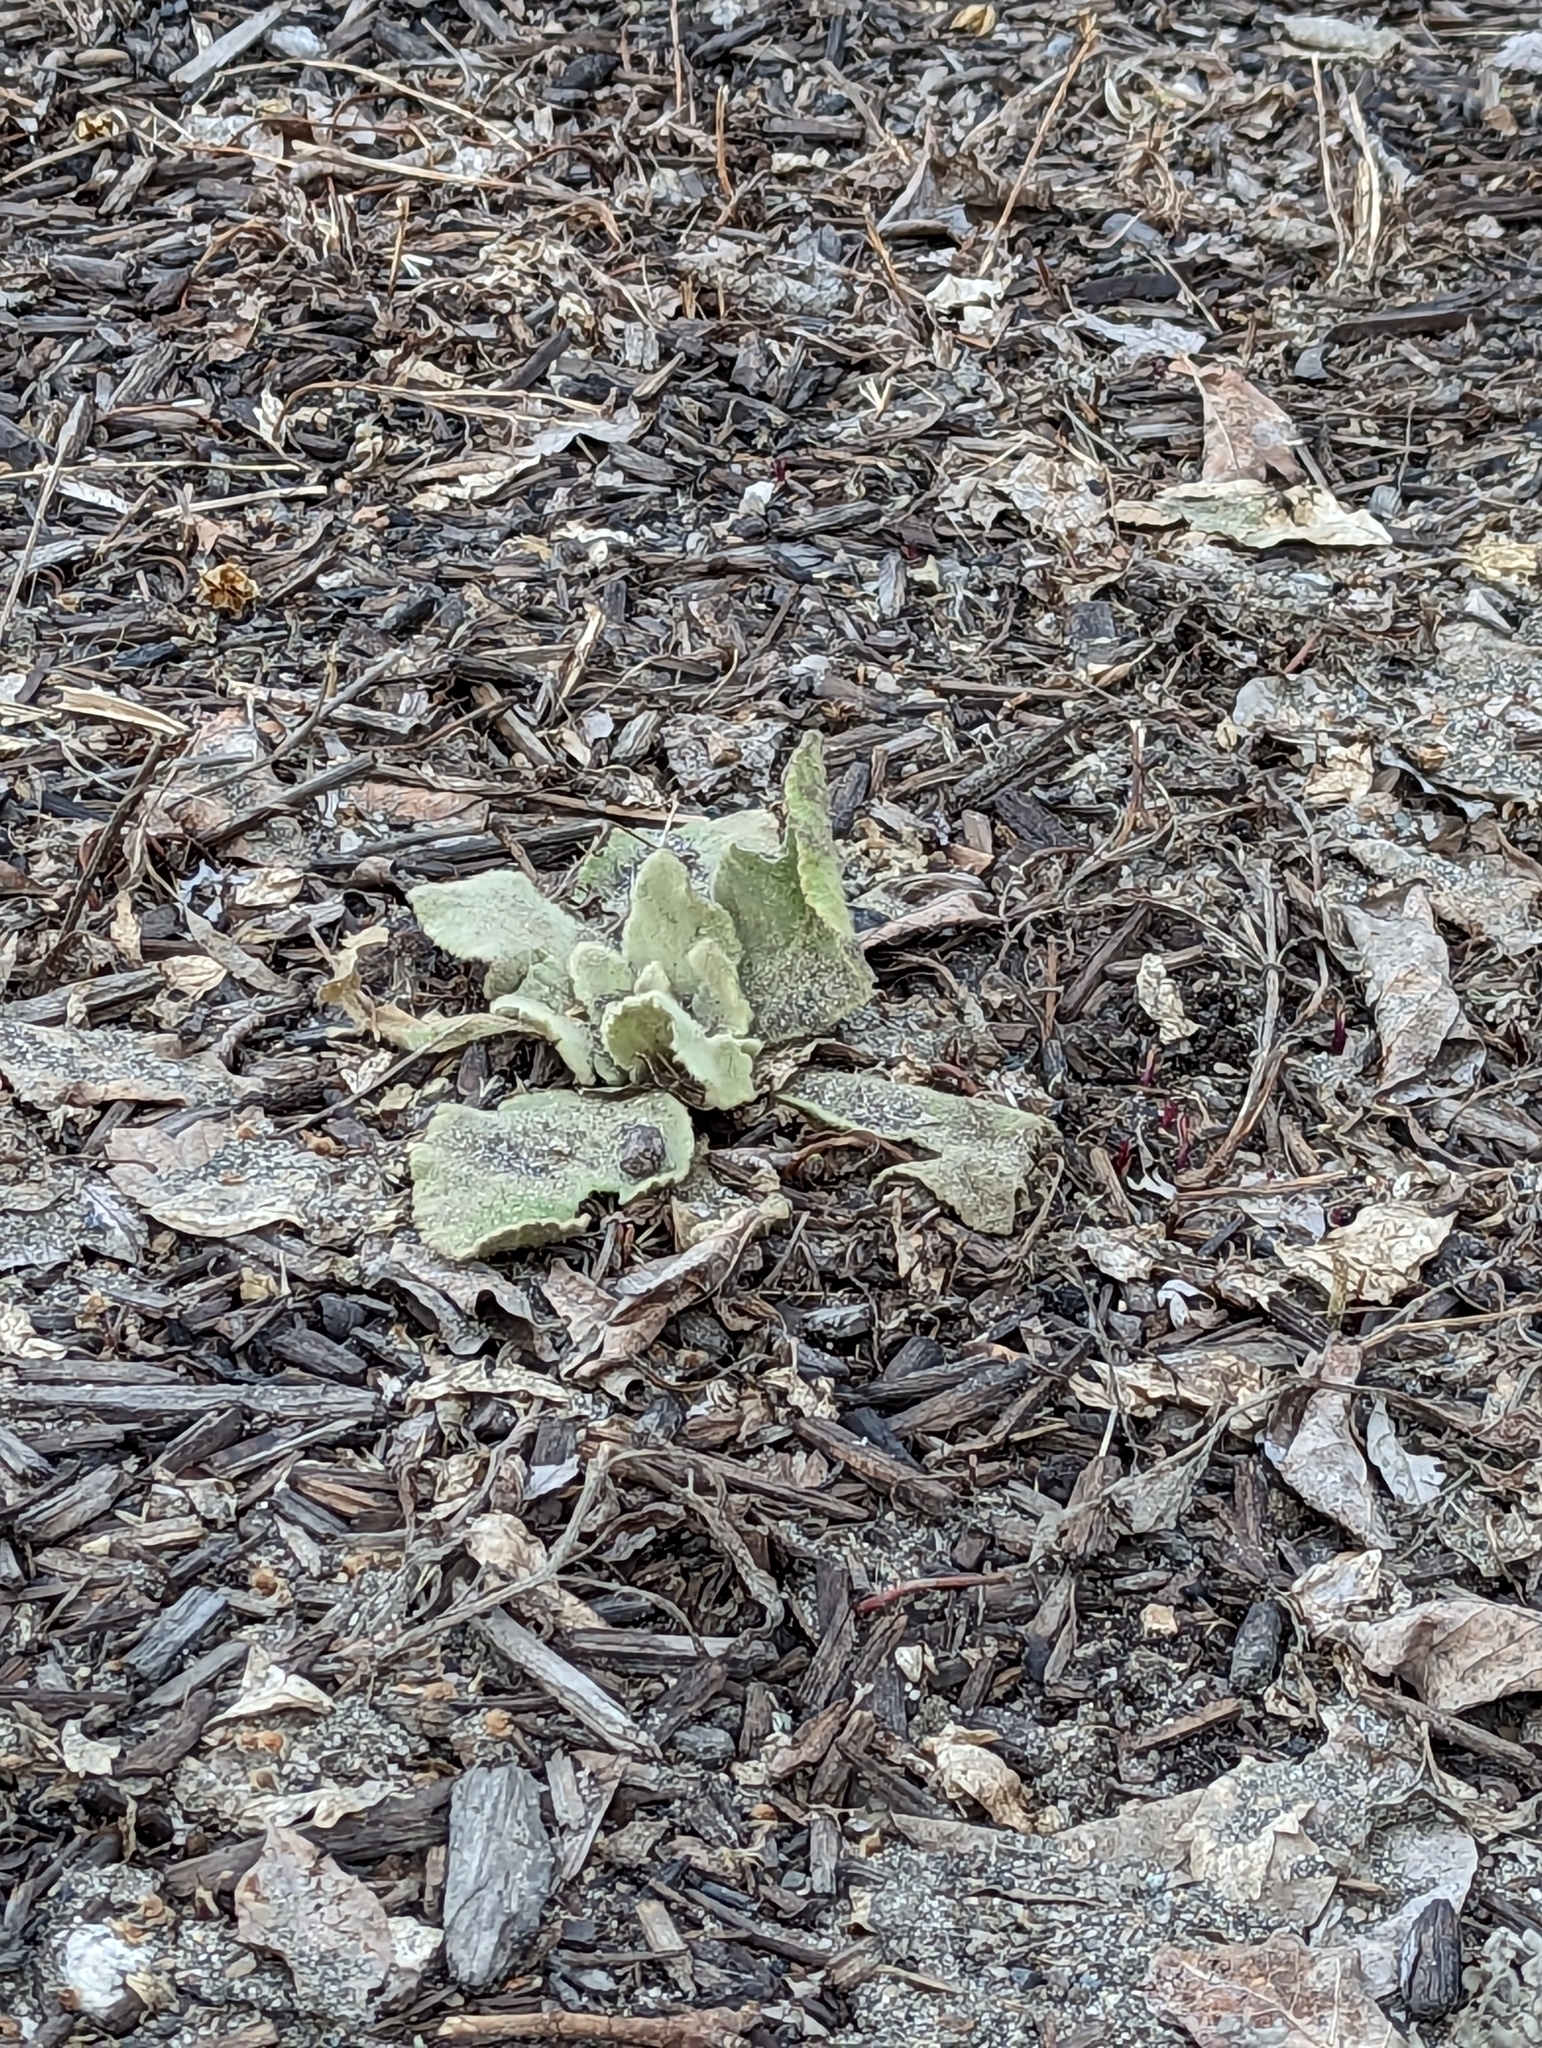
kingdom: Plantae
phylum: Tracheophyta
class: Magnoliopsida
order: Lamiales
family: Scrophulariaceae
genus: Verbascum
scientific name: Verbascum thapsus
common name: Common mullein
